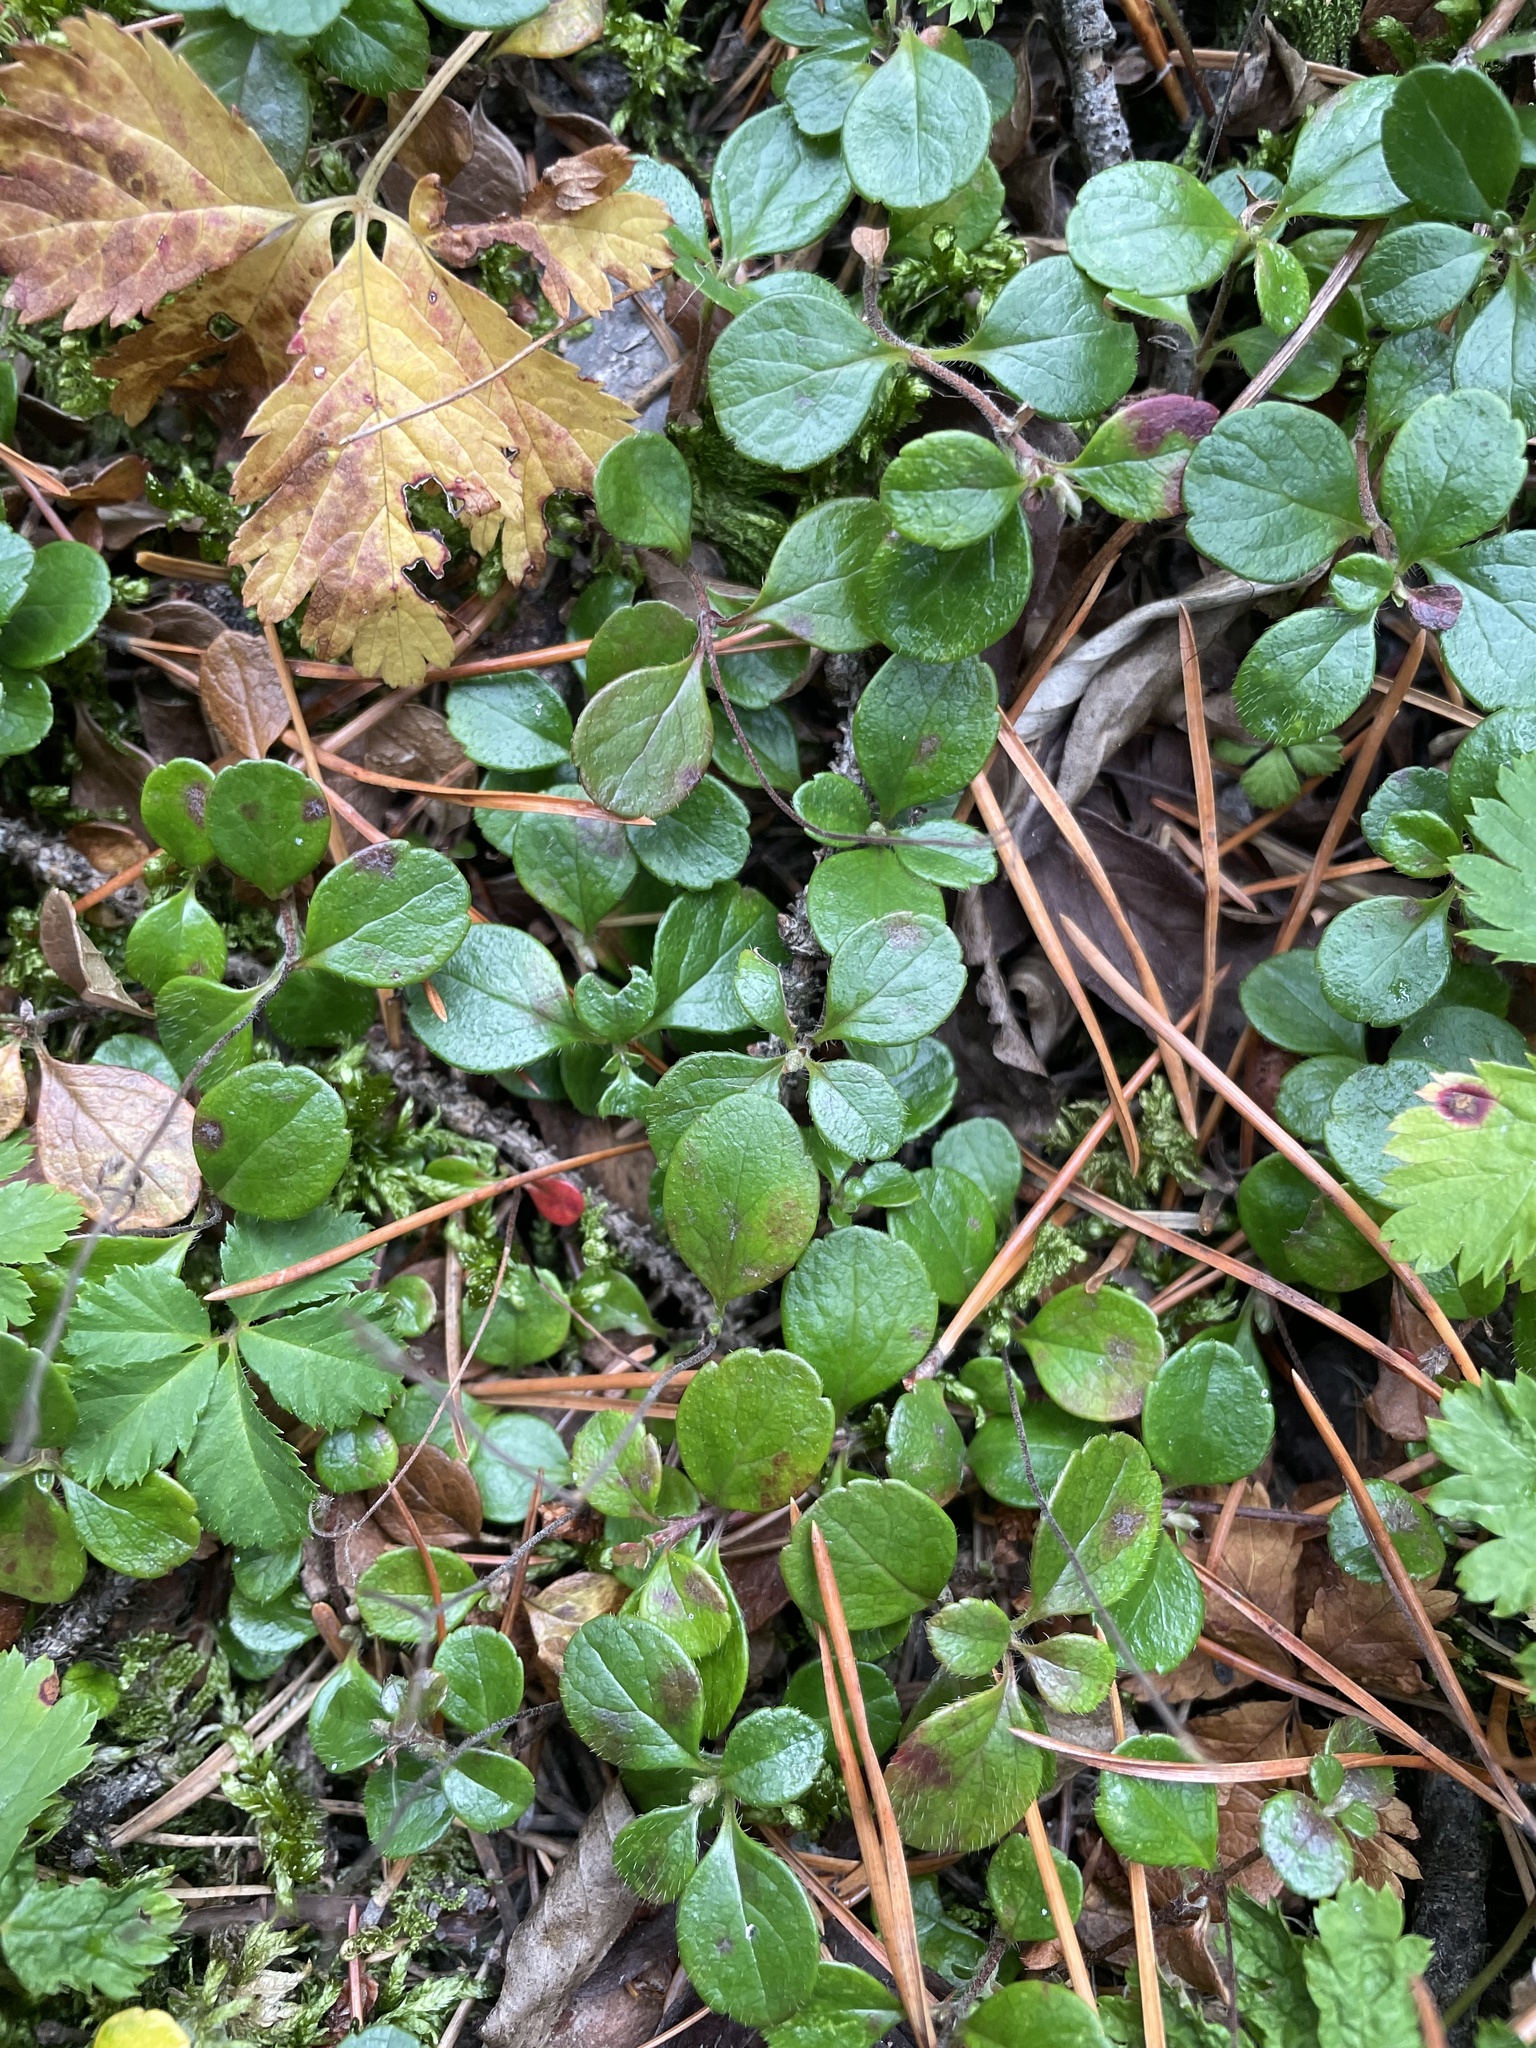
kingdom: Plantae
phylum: Tracheophyta
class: Magnoliopsida
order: Dipsacales
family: Caprifoliaceae
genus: Linnaea
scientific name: Linnaea borealis
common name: Twinflower
